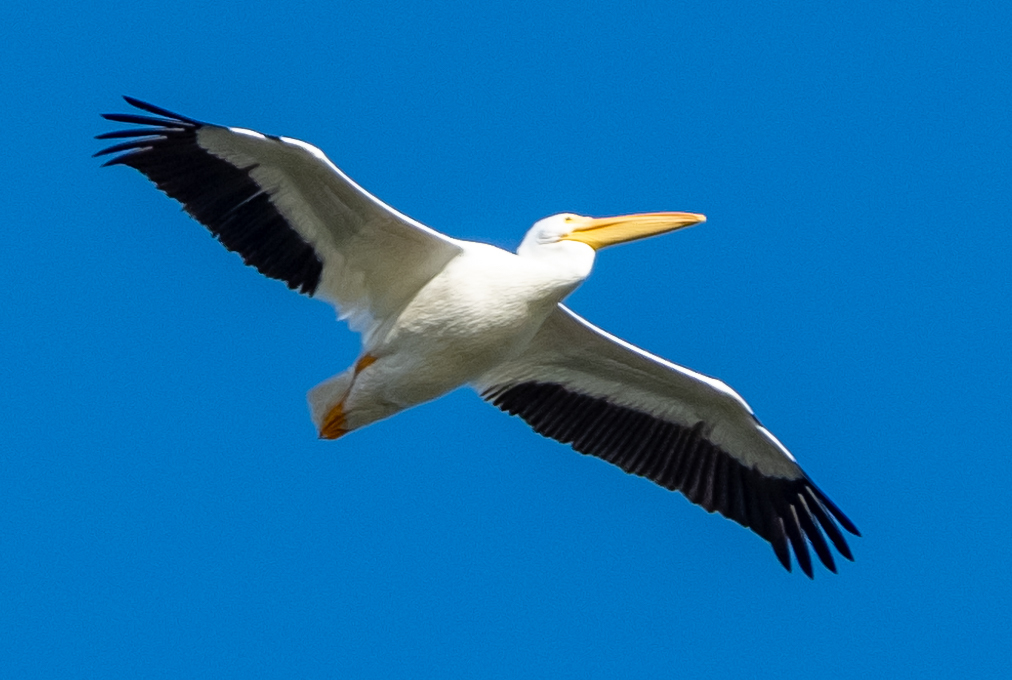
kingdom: Animalia
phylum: Chordata
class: Aves
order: Pelecaniformes
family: Pelecanidae
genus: Pelecanus
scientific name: Pelecanus erythrorhynchos
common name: American white pelican
